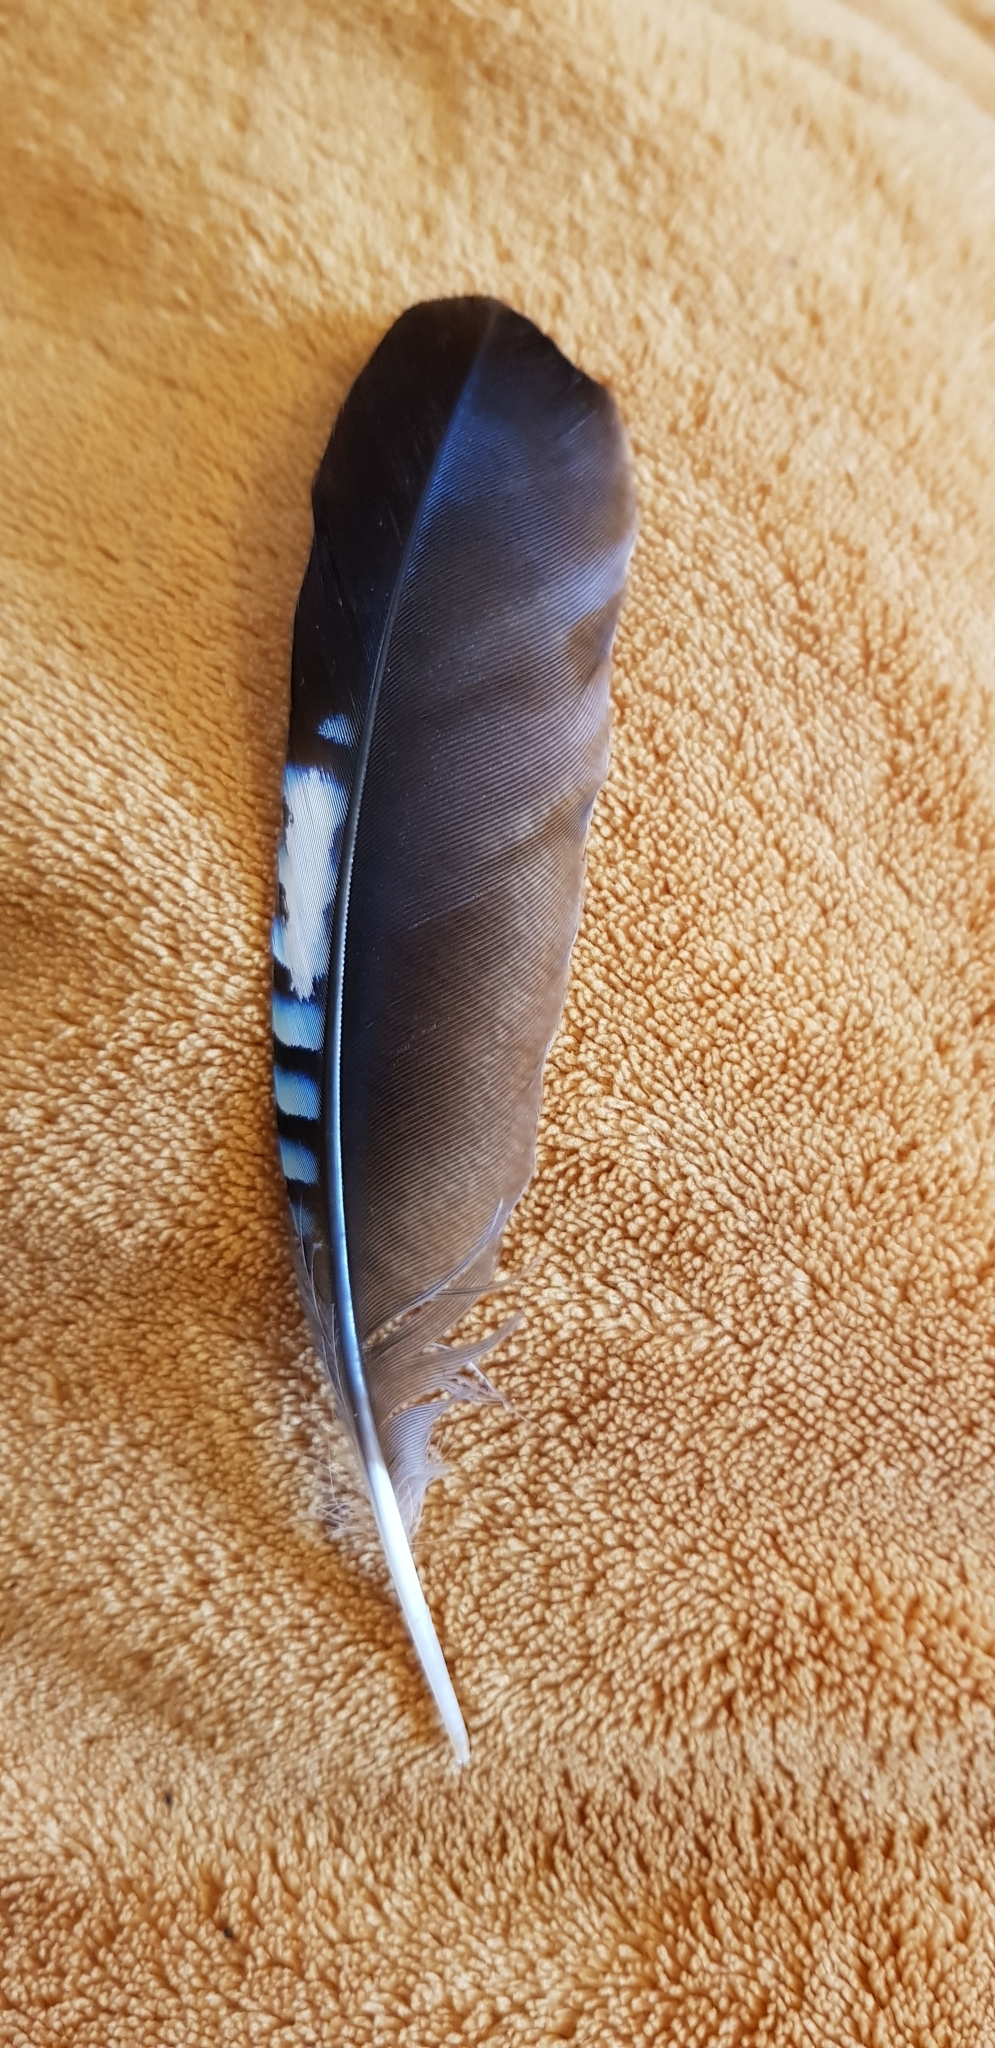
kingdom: Animalia
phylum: Chordata
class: Aves
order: Passeriformes
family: Corvidae
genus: Garrulus
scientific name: Garrulus glandarius
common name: Eurasian jay
